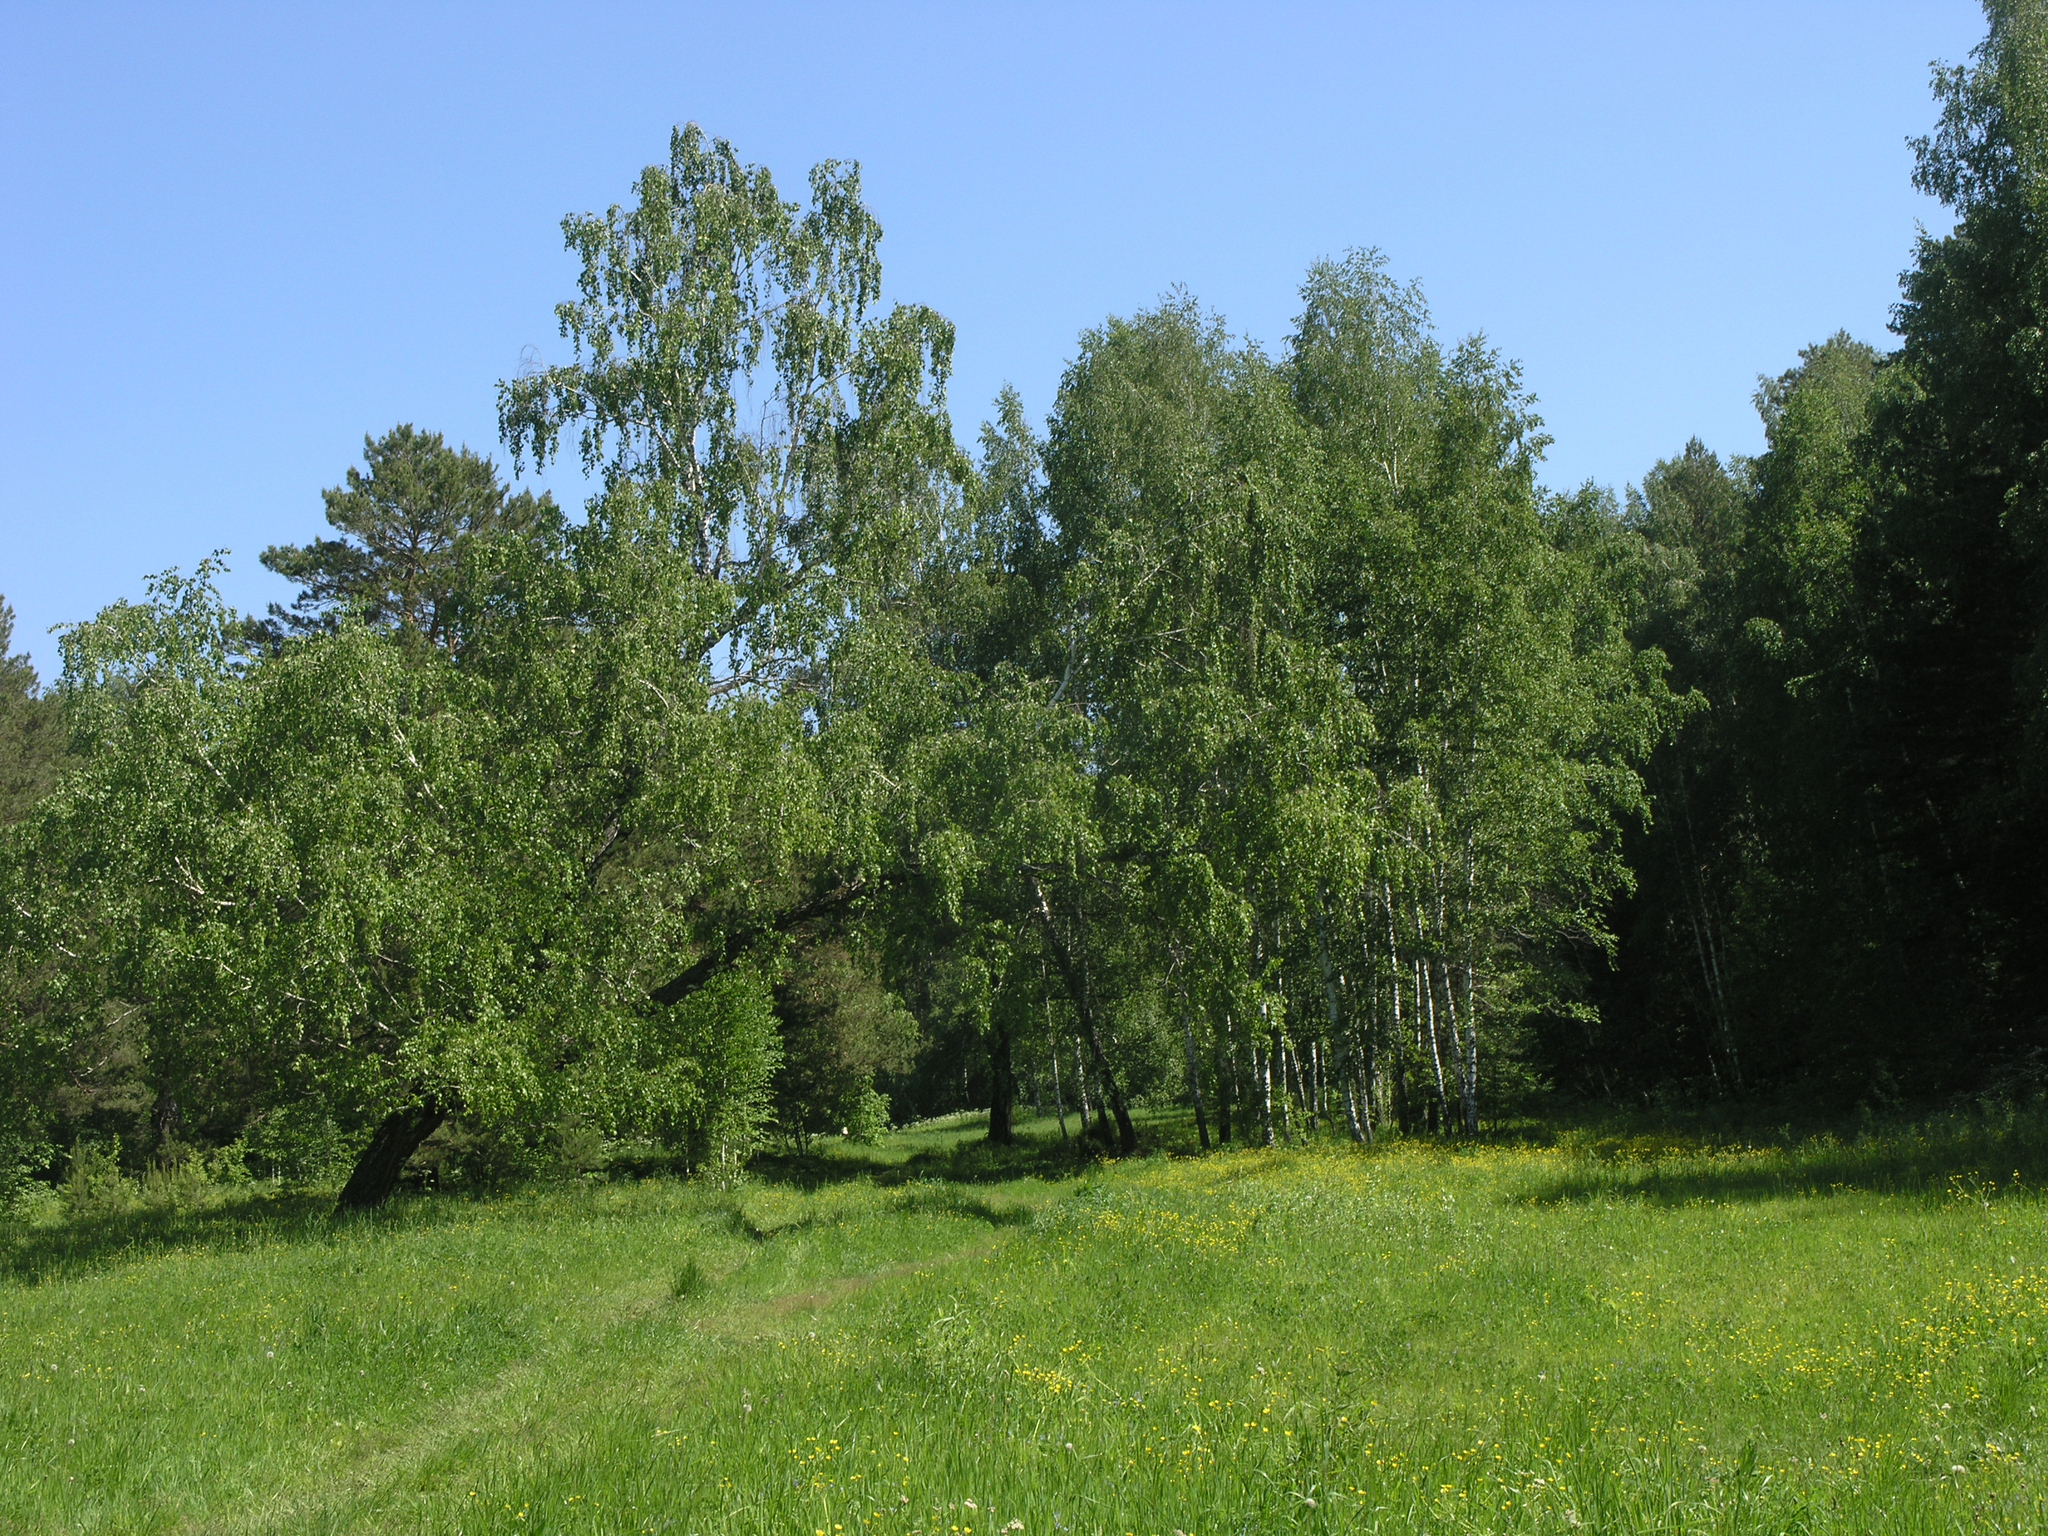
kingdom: Plantae
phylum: Tracheophyta
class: Magnoliopsida
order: Fagales
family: Betulaceae
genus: Betula
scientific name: Betula pendula
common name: Silver birch
